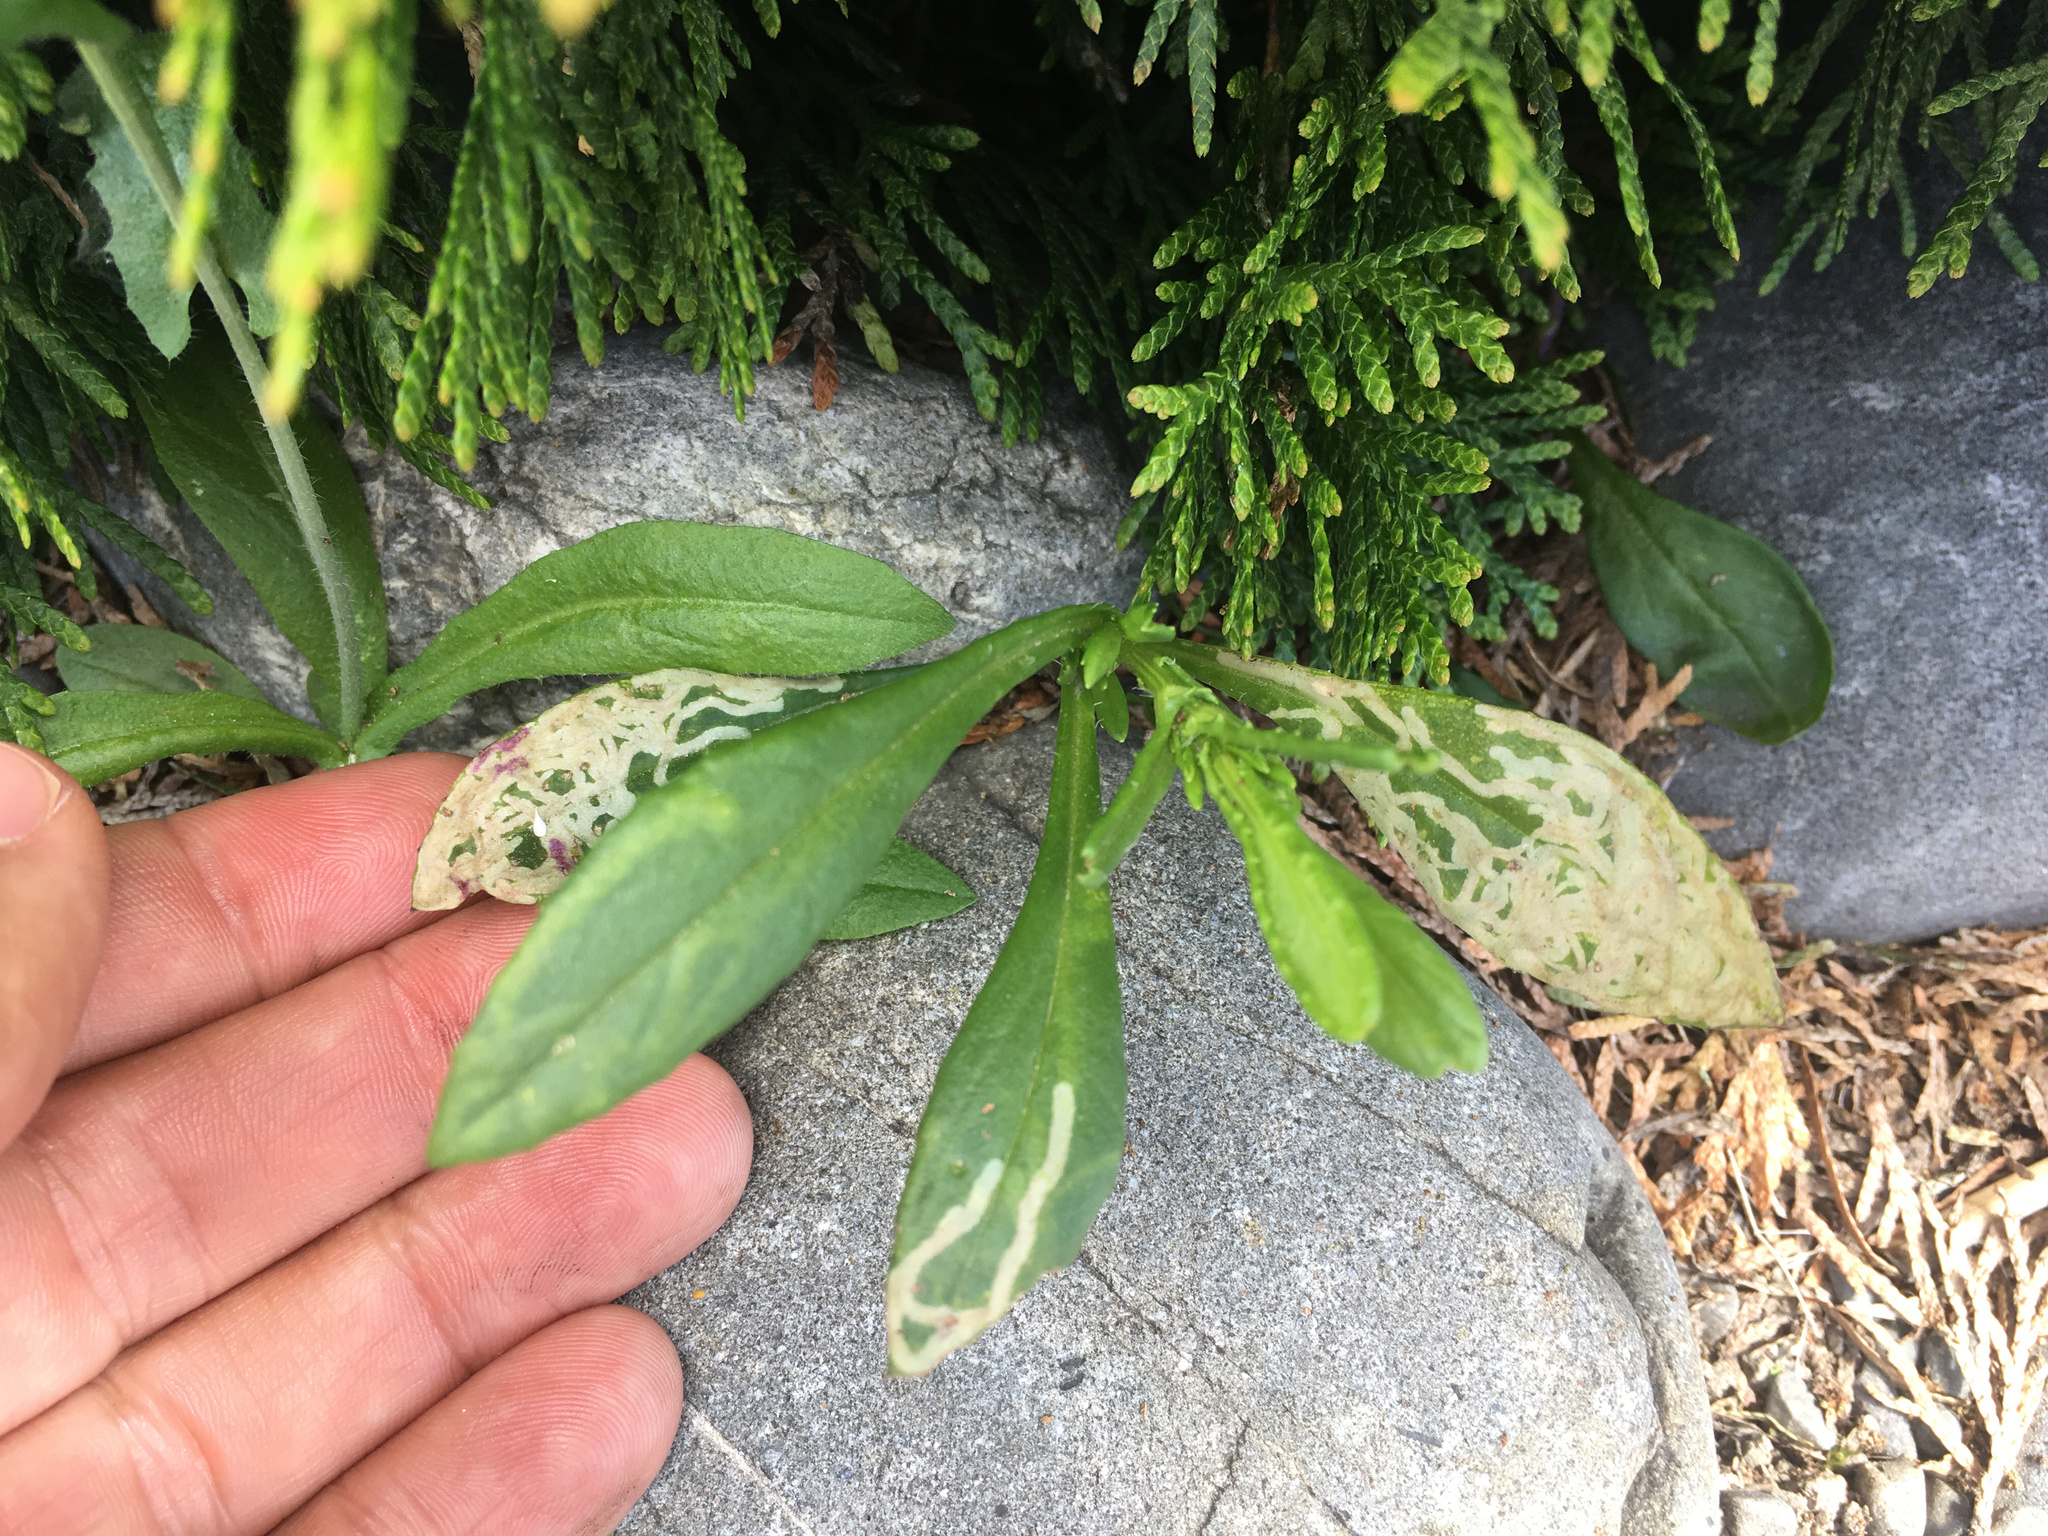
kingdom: Plantae
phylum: Tracheophyta
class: Magnoliopsida
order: Asterales
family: Asteraceae
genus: Senecio
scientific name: Senecio skirrhodon
